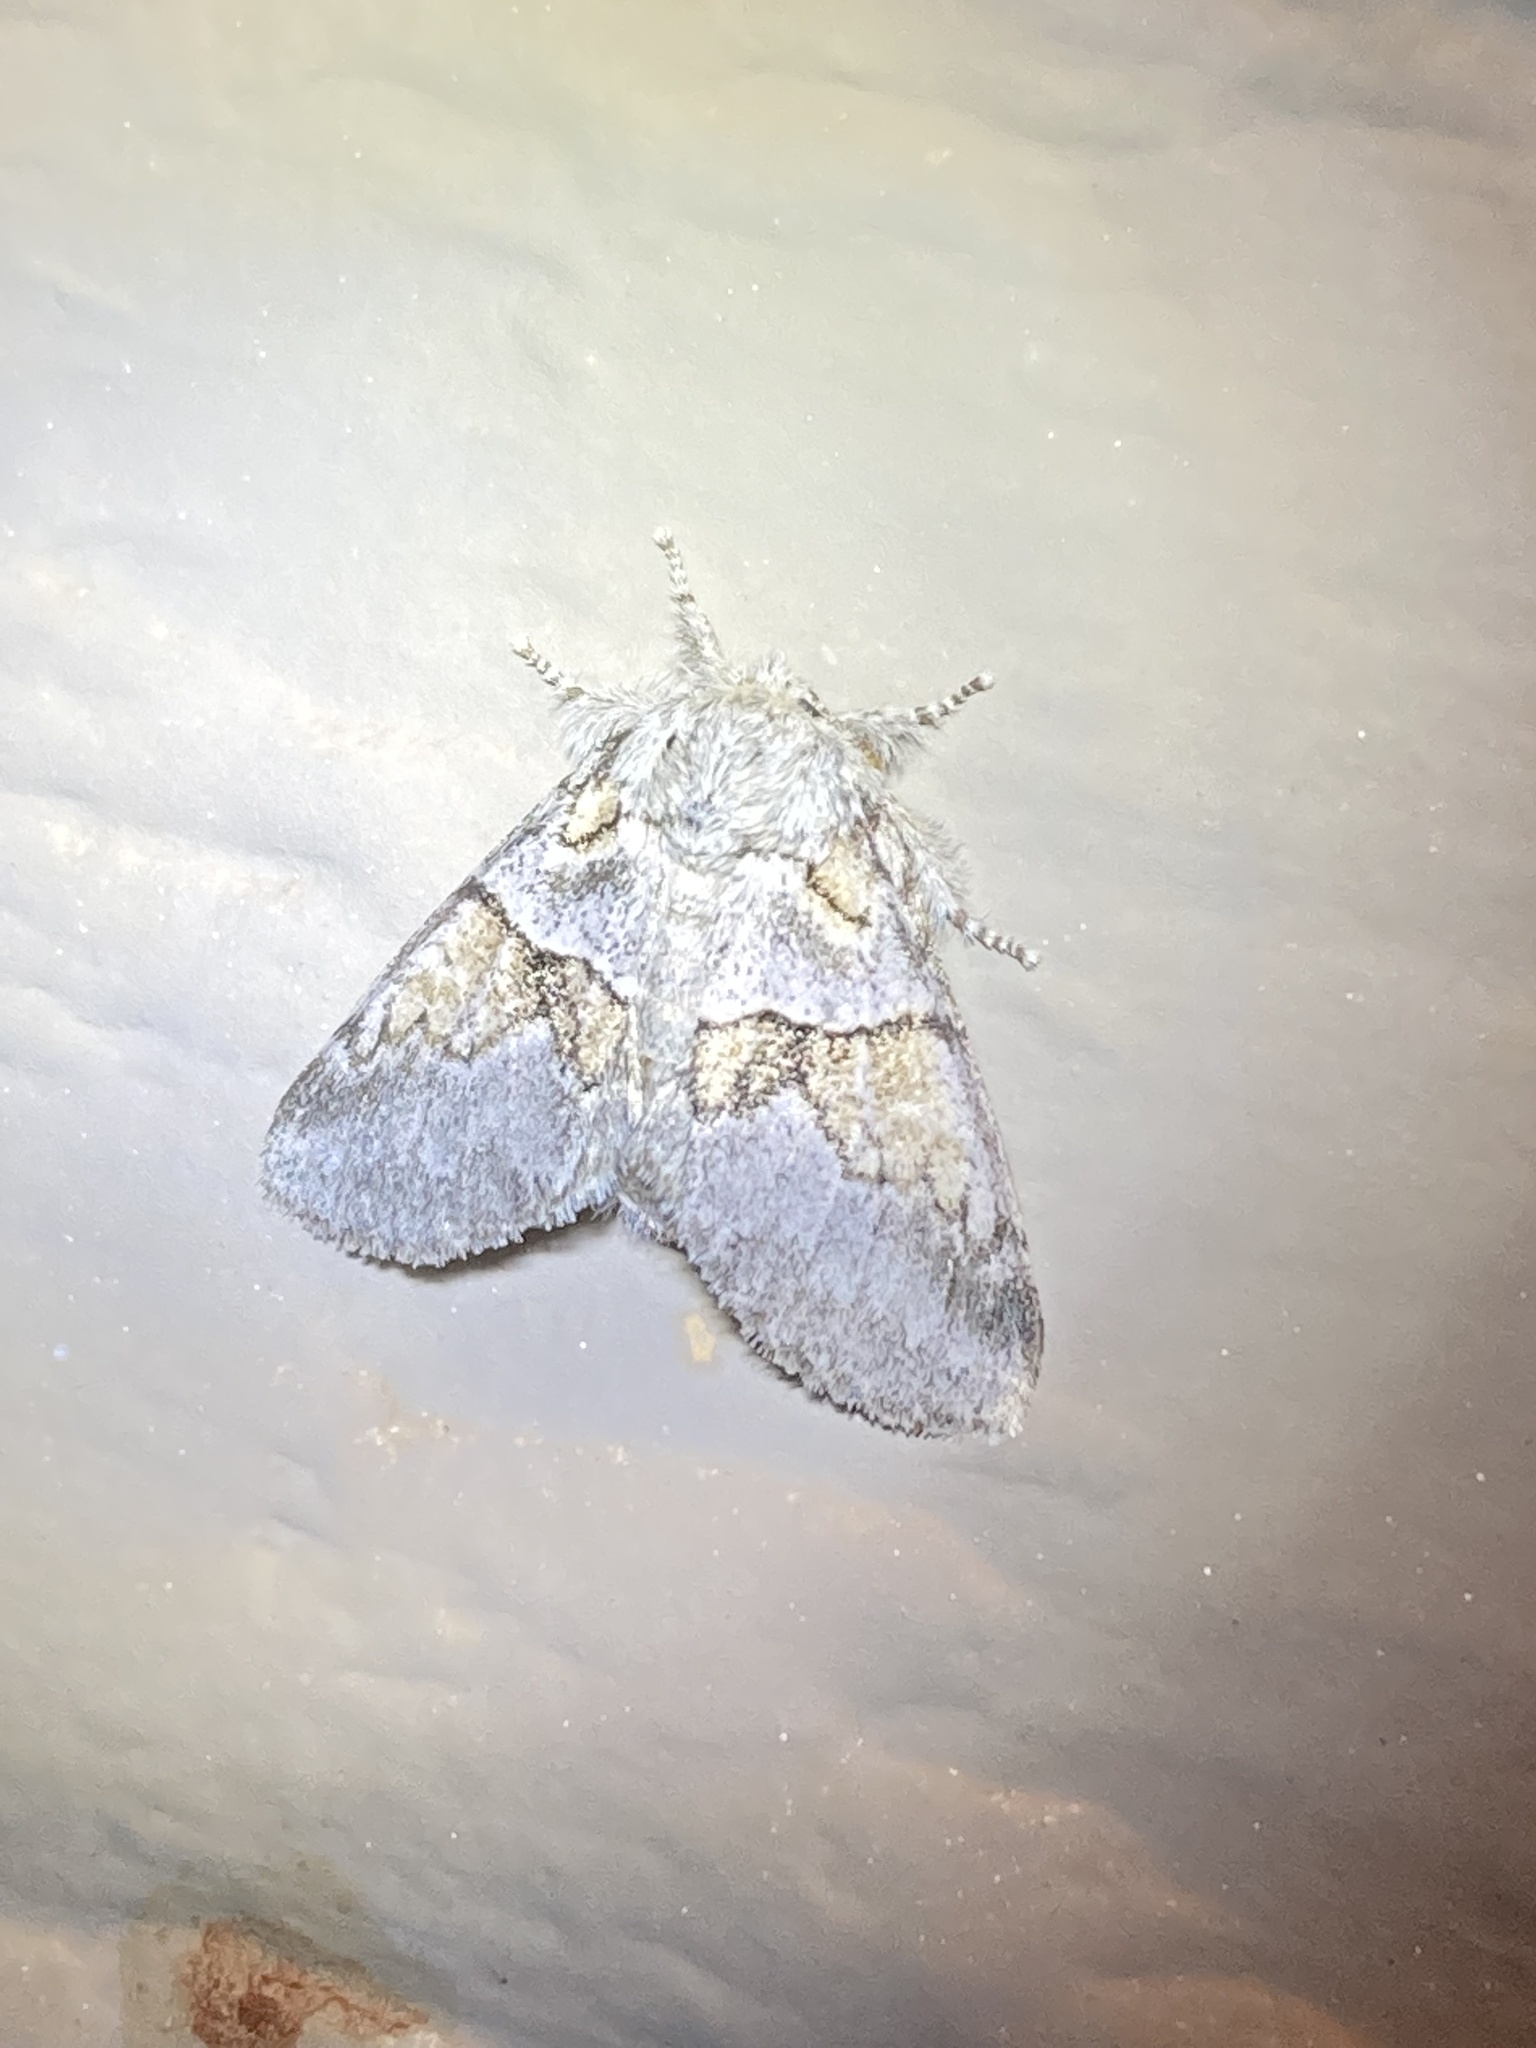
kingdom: Animalia
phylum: Arthropoda
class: Insecta
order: Lepidoptera
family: Notodontidae
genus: Gluphisia
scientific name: Gluphisia septentrionis
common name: Common gluphisia
